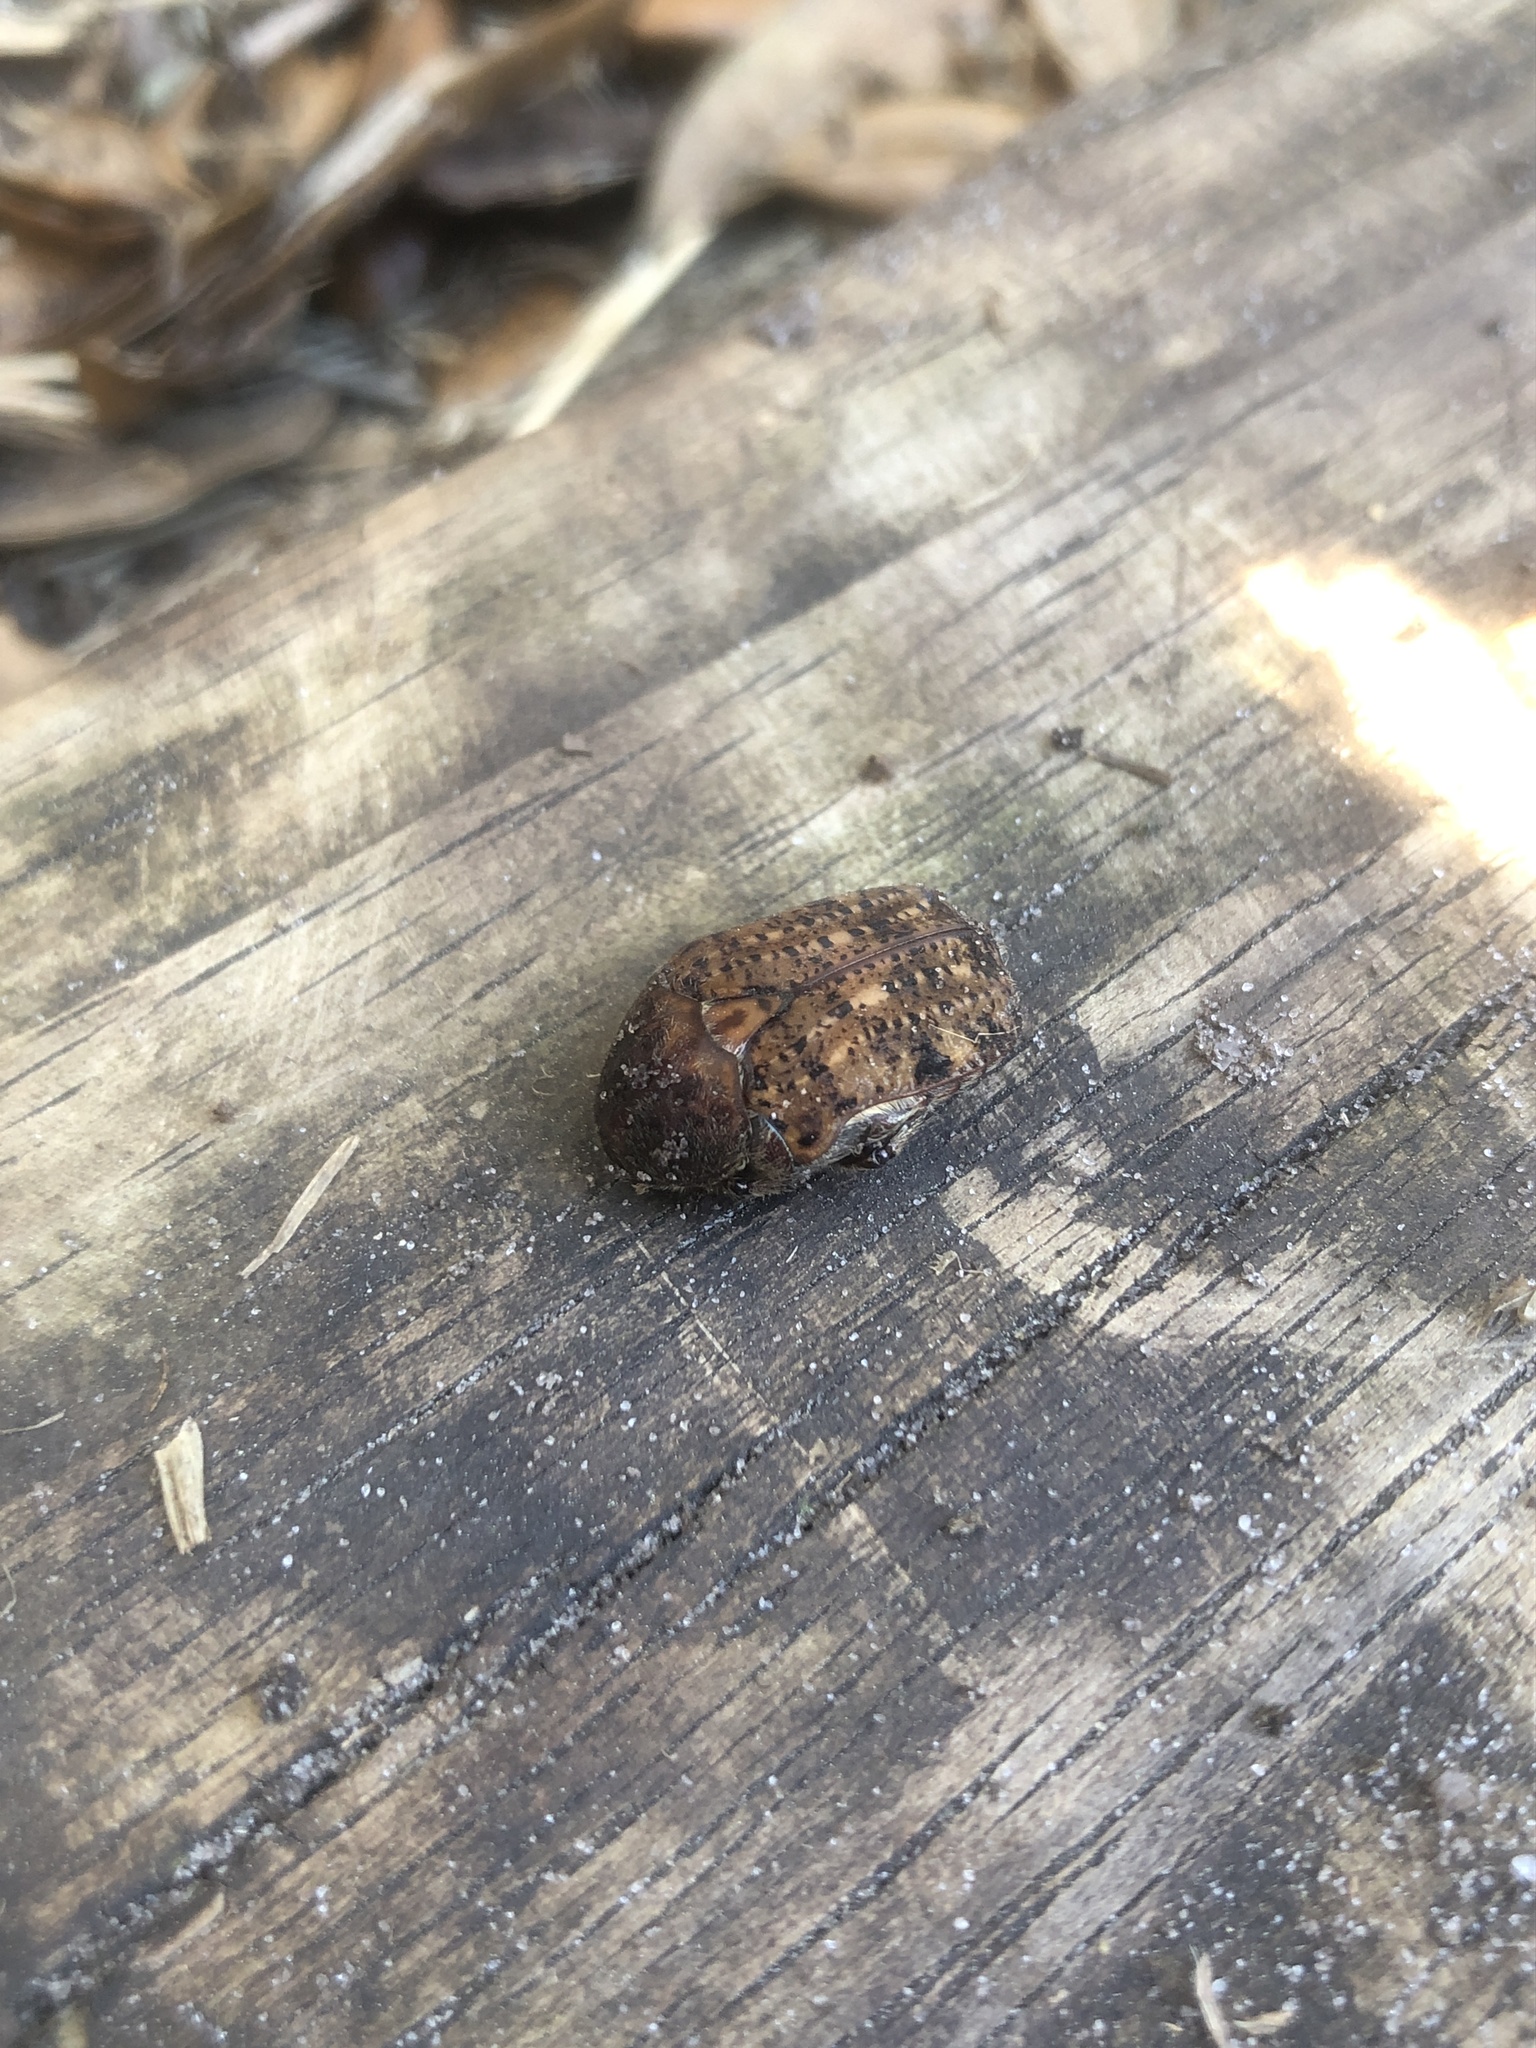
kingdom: Animalia
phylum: Arthropoda
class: Insecta
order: Coleoptera
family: Scarabaeidae
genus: Euphoria
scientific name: Euphoria inda
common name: Bumble flower beetle
